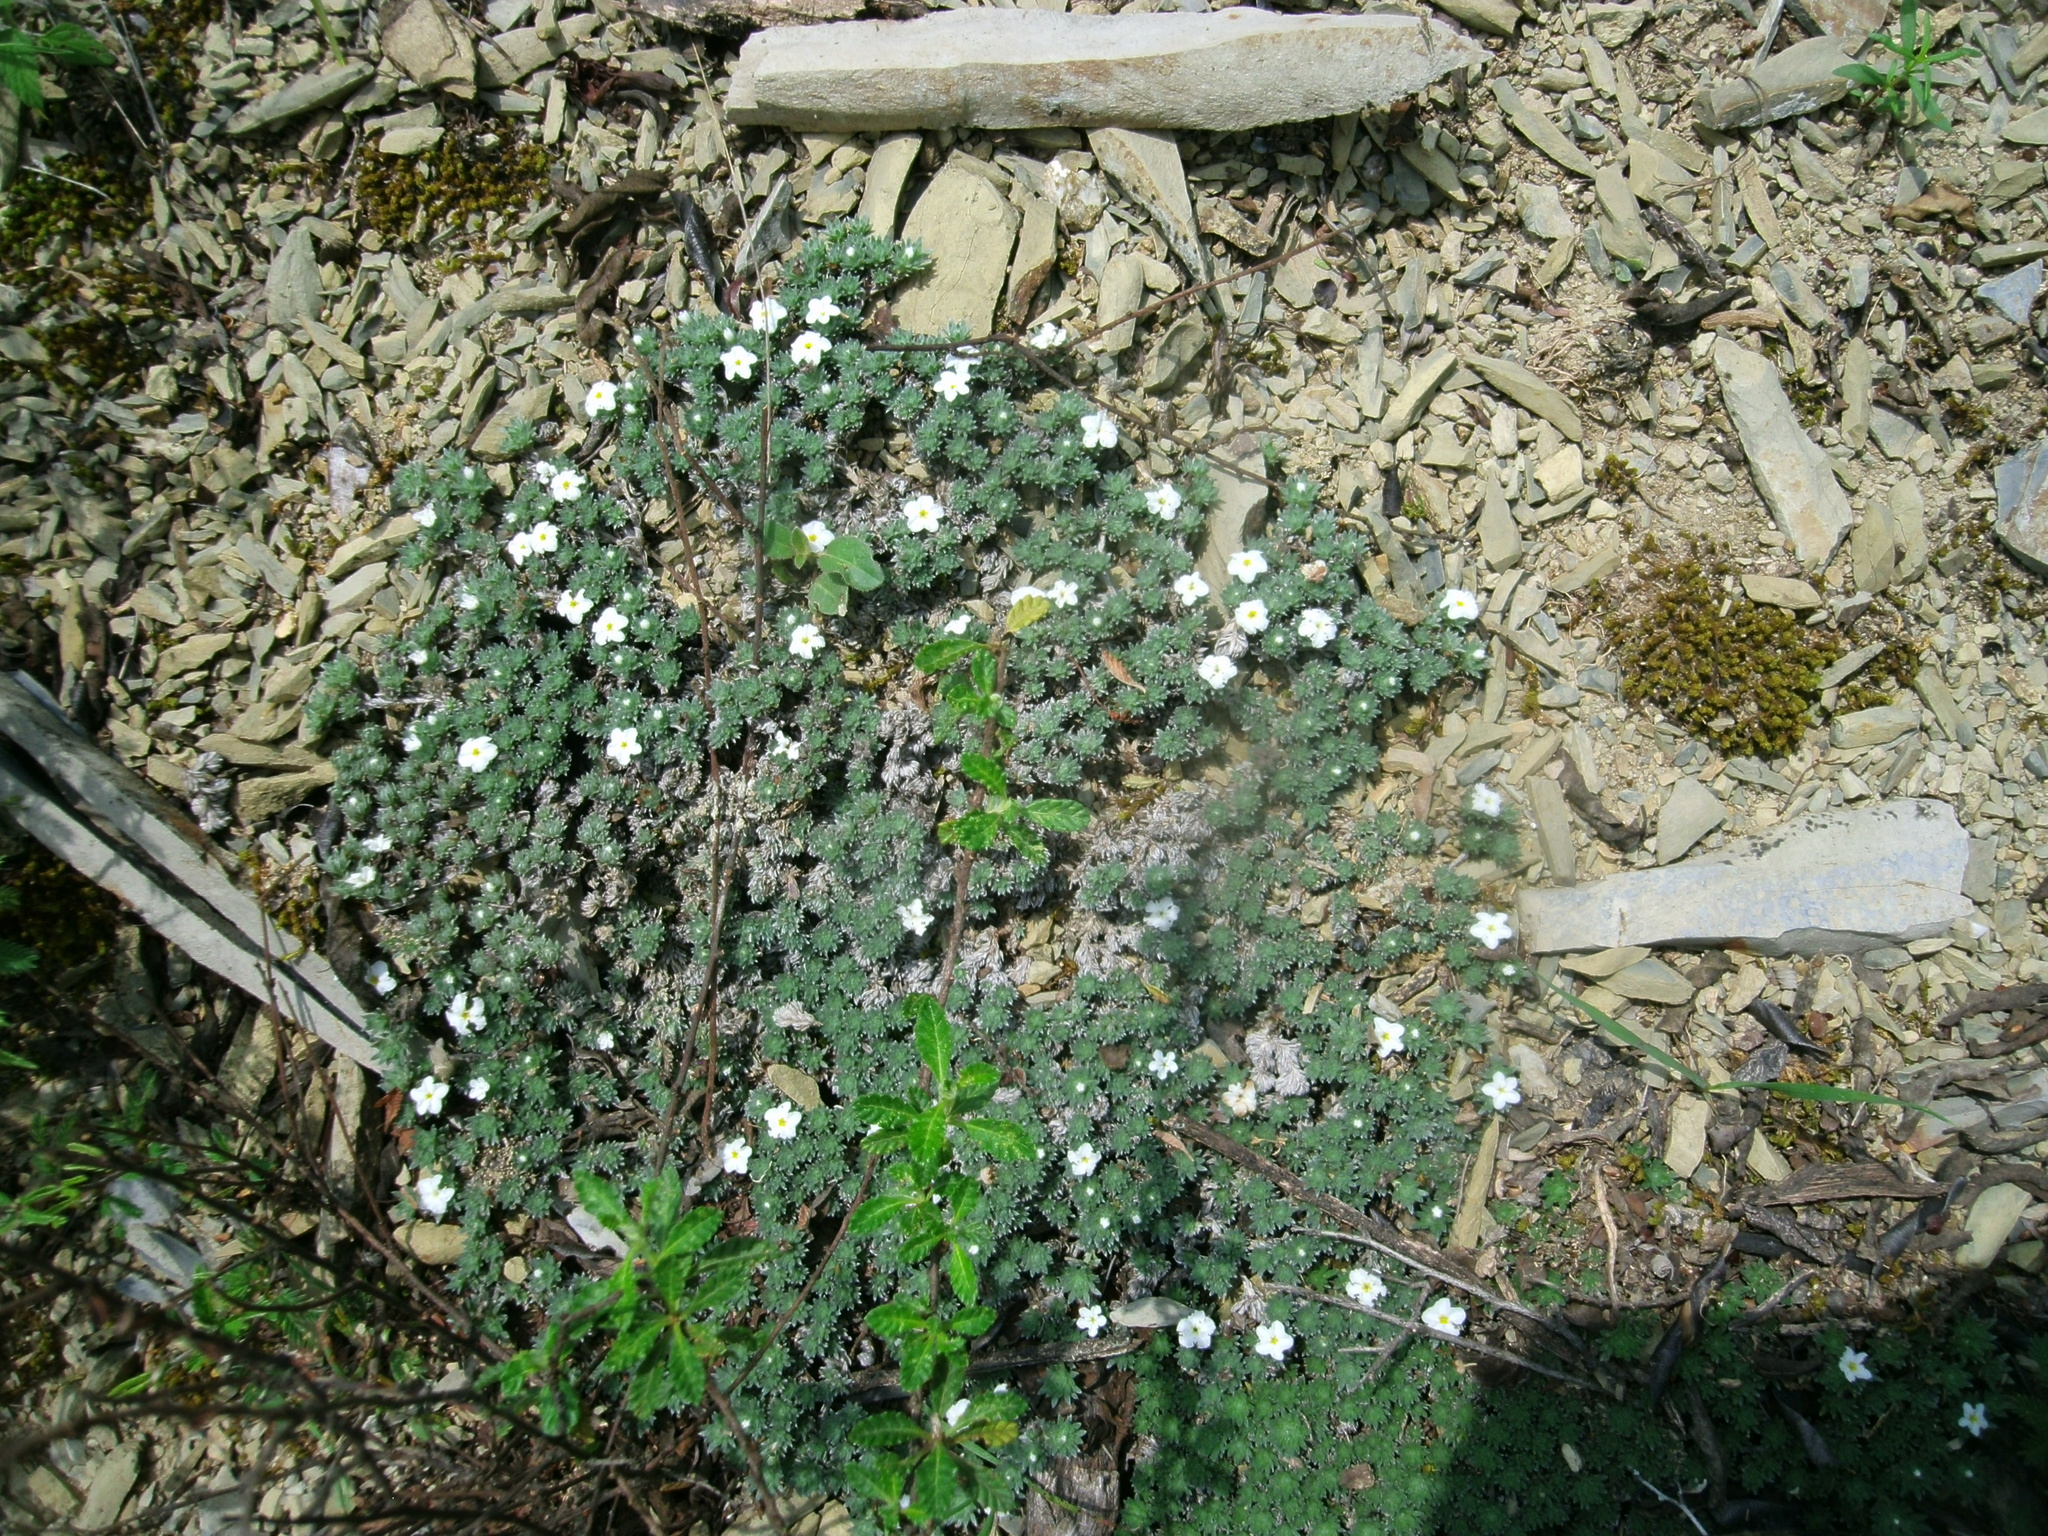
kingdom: Plantae
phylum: Tracheophyta
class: Magnoliopsida
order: Boraginales
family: Heliotropiaceae
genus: Euploca
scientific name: Euploca confertifolia
